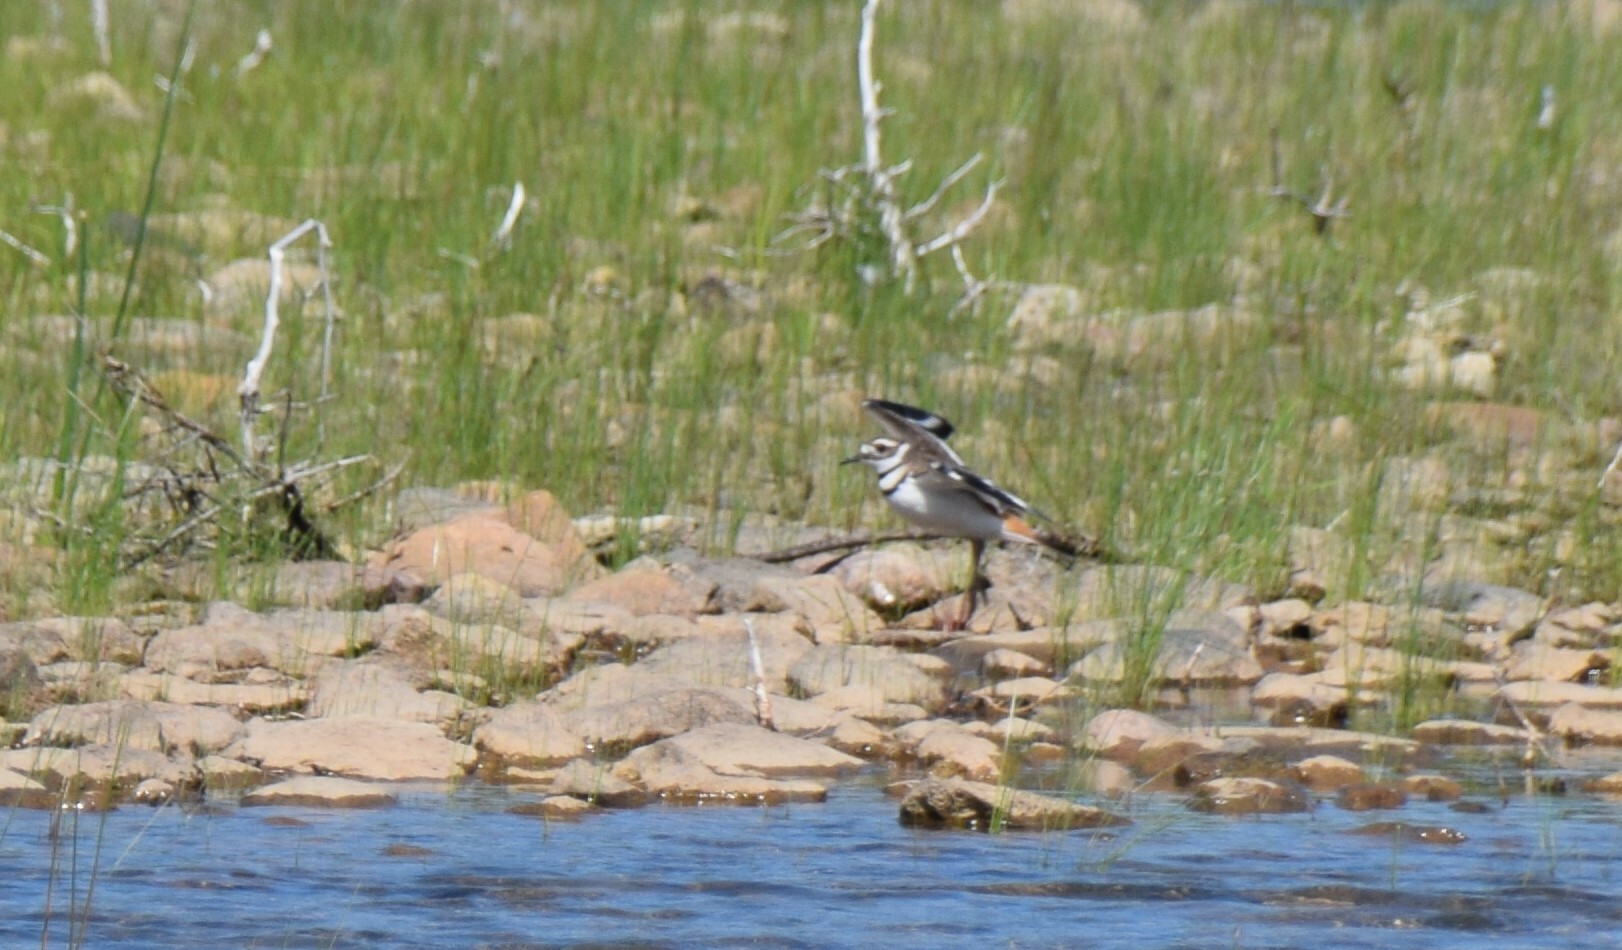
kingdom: Animalia
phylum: Chordata
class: Aves
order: Charadriiformes
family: Charadriidae
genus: Charadrius
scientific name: Charadrius vociferus
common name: Killdeer
